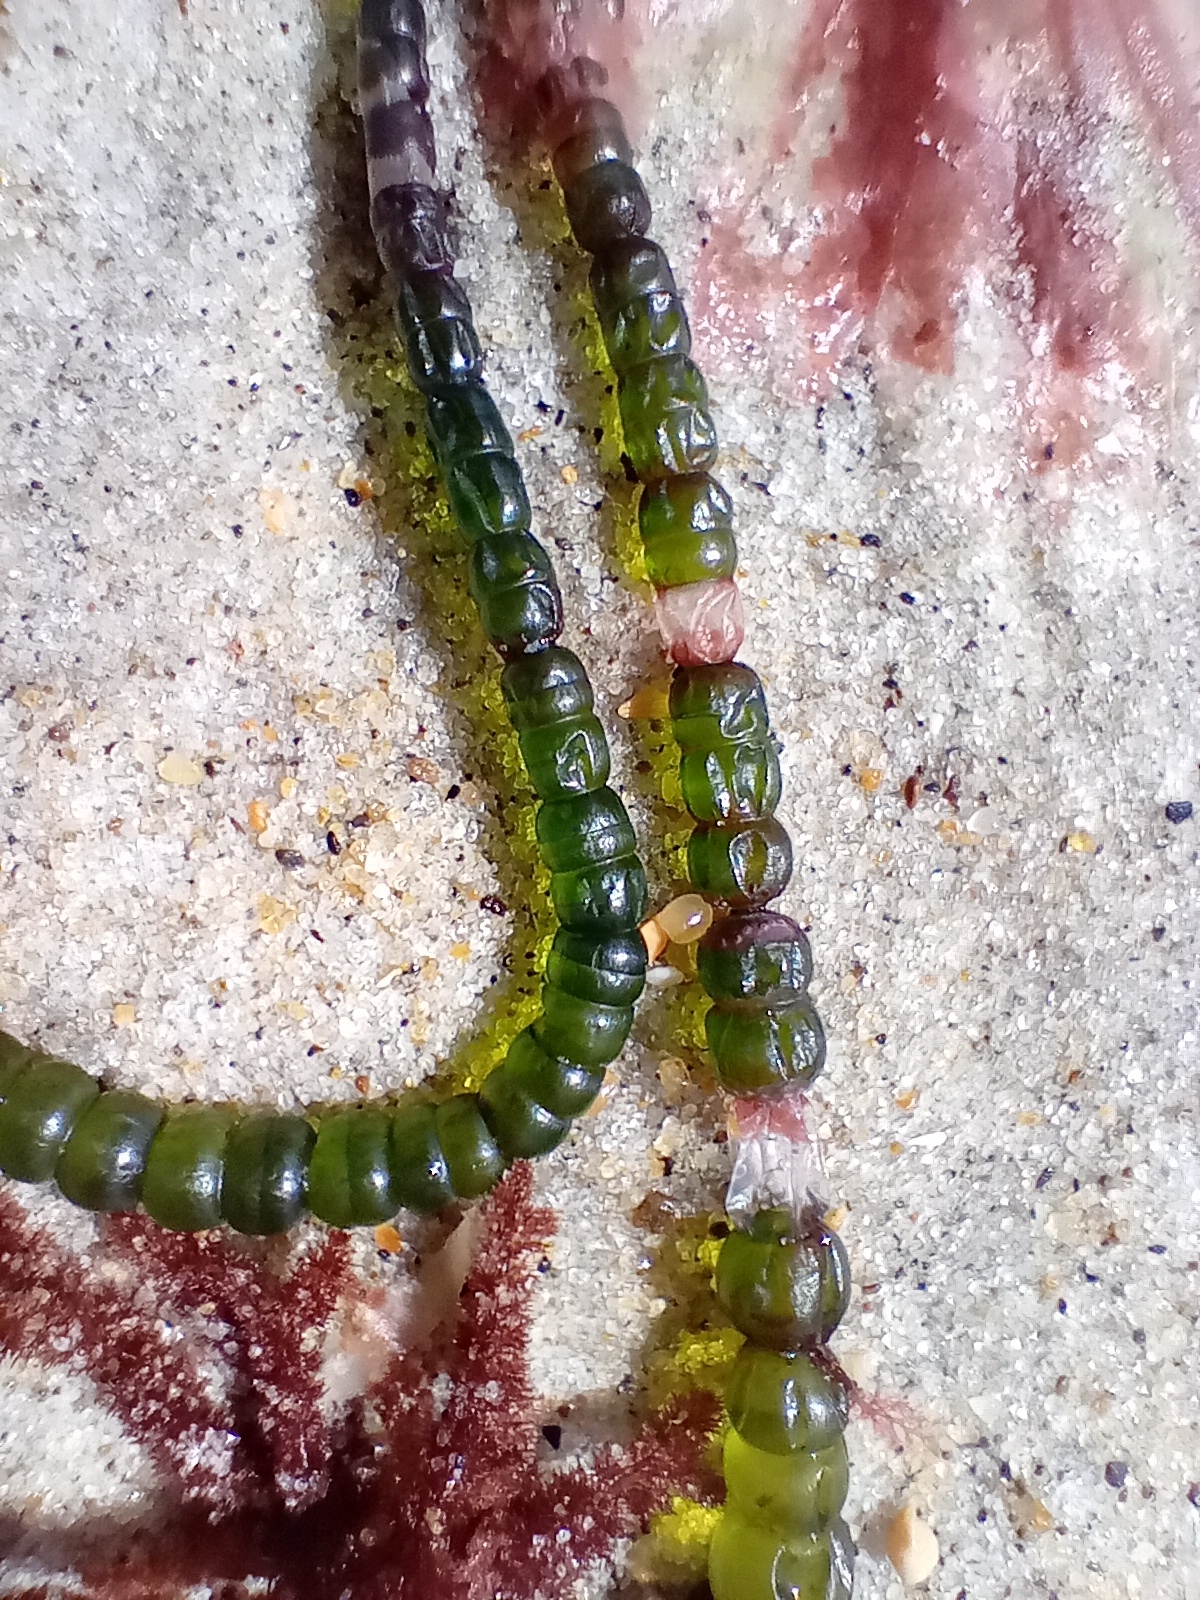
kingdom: Plantae
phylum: Chlorophyta
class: Ulvophyceae
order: Cladophorales
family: Cladophoraceae
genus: Chaetomorpha
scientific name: Chaetomorpha coliformis
